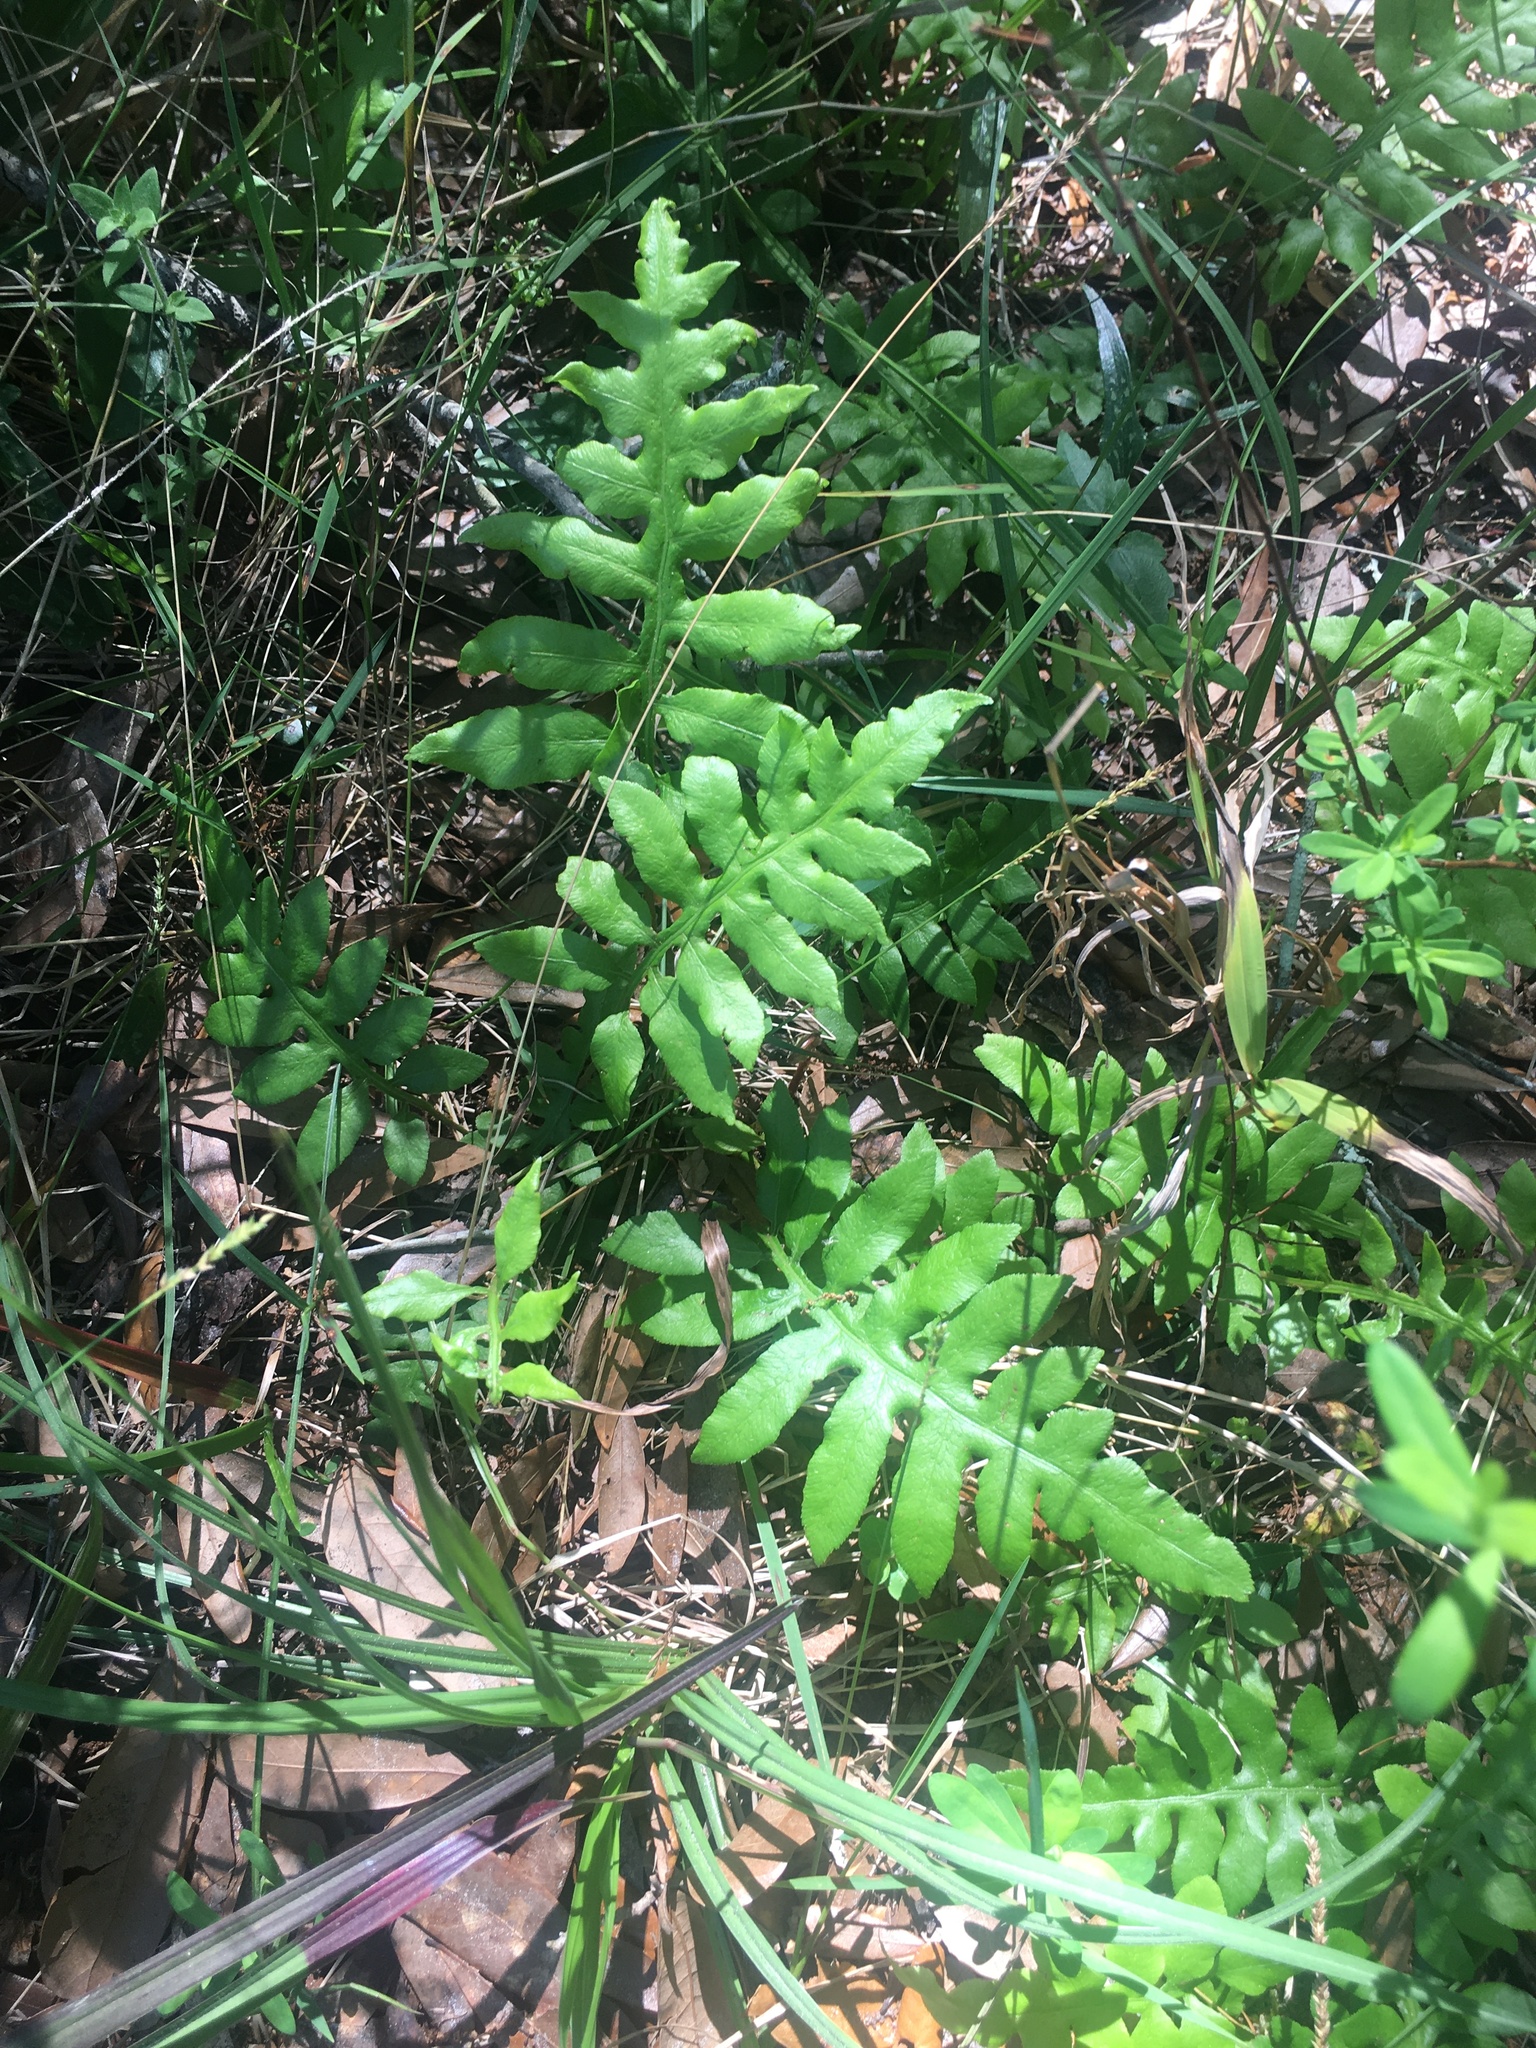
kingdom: Plantae
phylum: Tracheophyta
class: Polypodiopsida
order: Polypodiales
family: Blechnaceae
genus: Lorinseria
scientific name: Lorinseria areolata
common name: Dwarf chain fern
